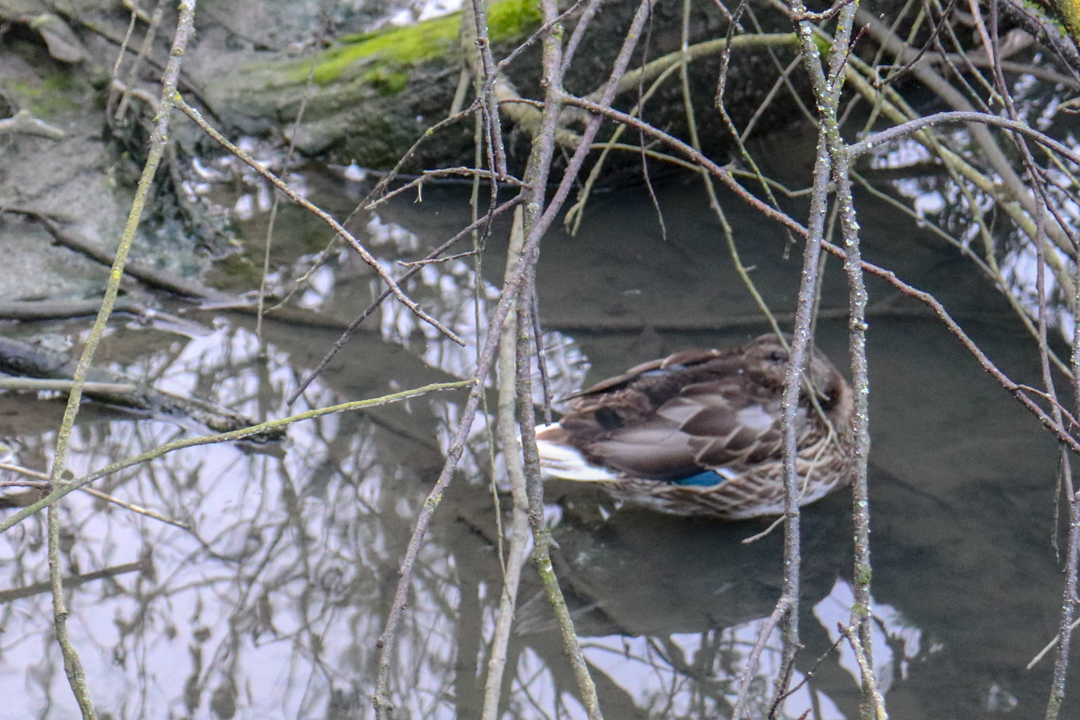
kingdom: Animalia
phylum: Chordata
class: Aves
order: Anseriformes
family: Anatidae
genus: Anas
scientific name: Anas platyrhynchos
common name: Mallard
